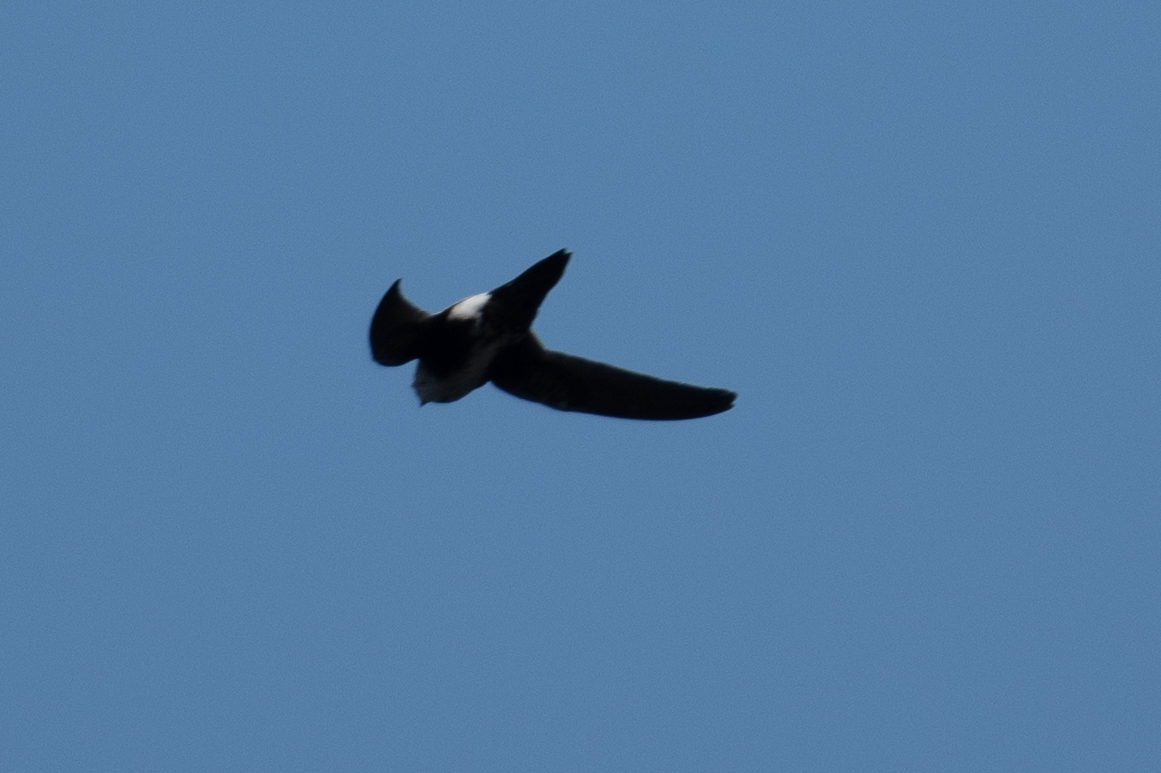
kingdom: Animalia
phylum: Chordata
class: Aves
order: Apodiformes
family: Apodidae
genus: Aeronautes
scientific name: Aeronautes saxatalis
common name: White-throated swift
